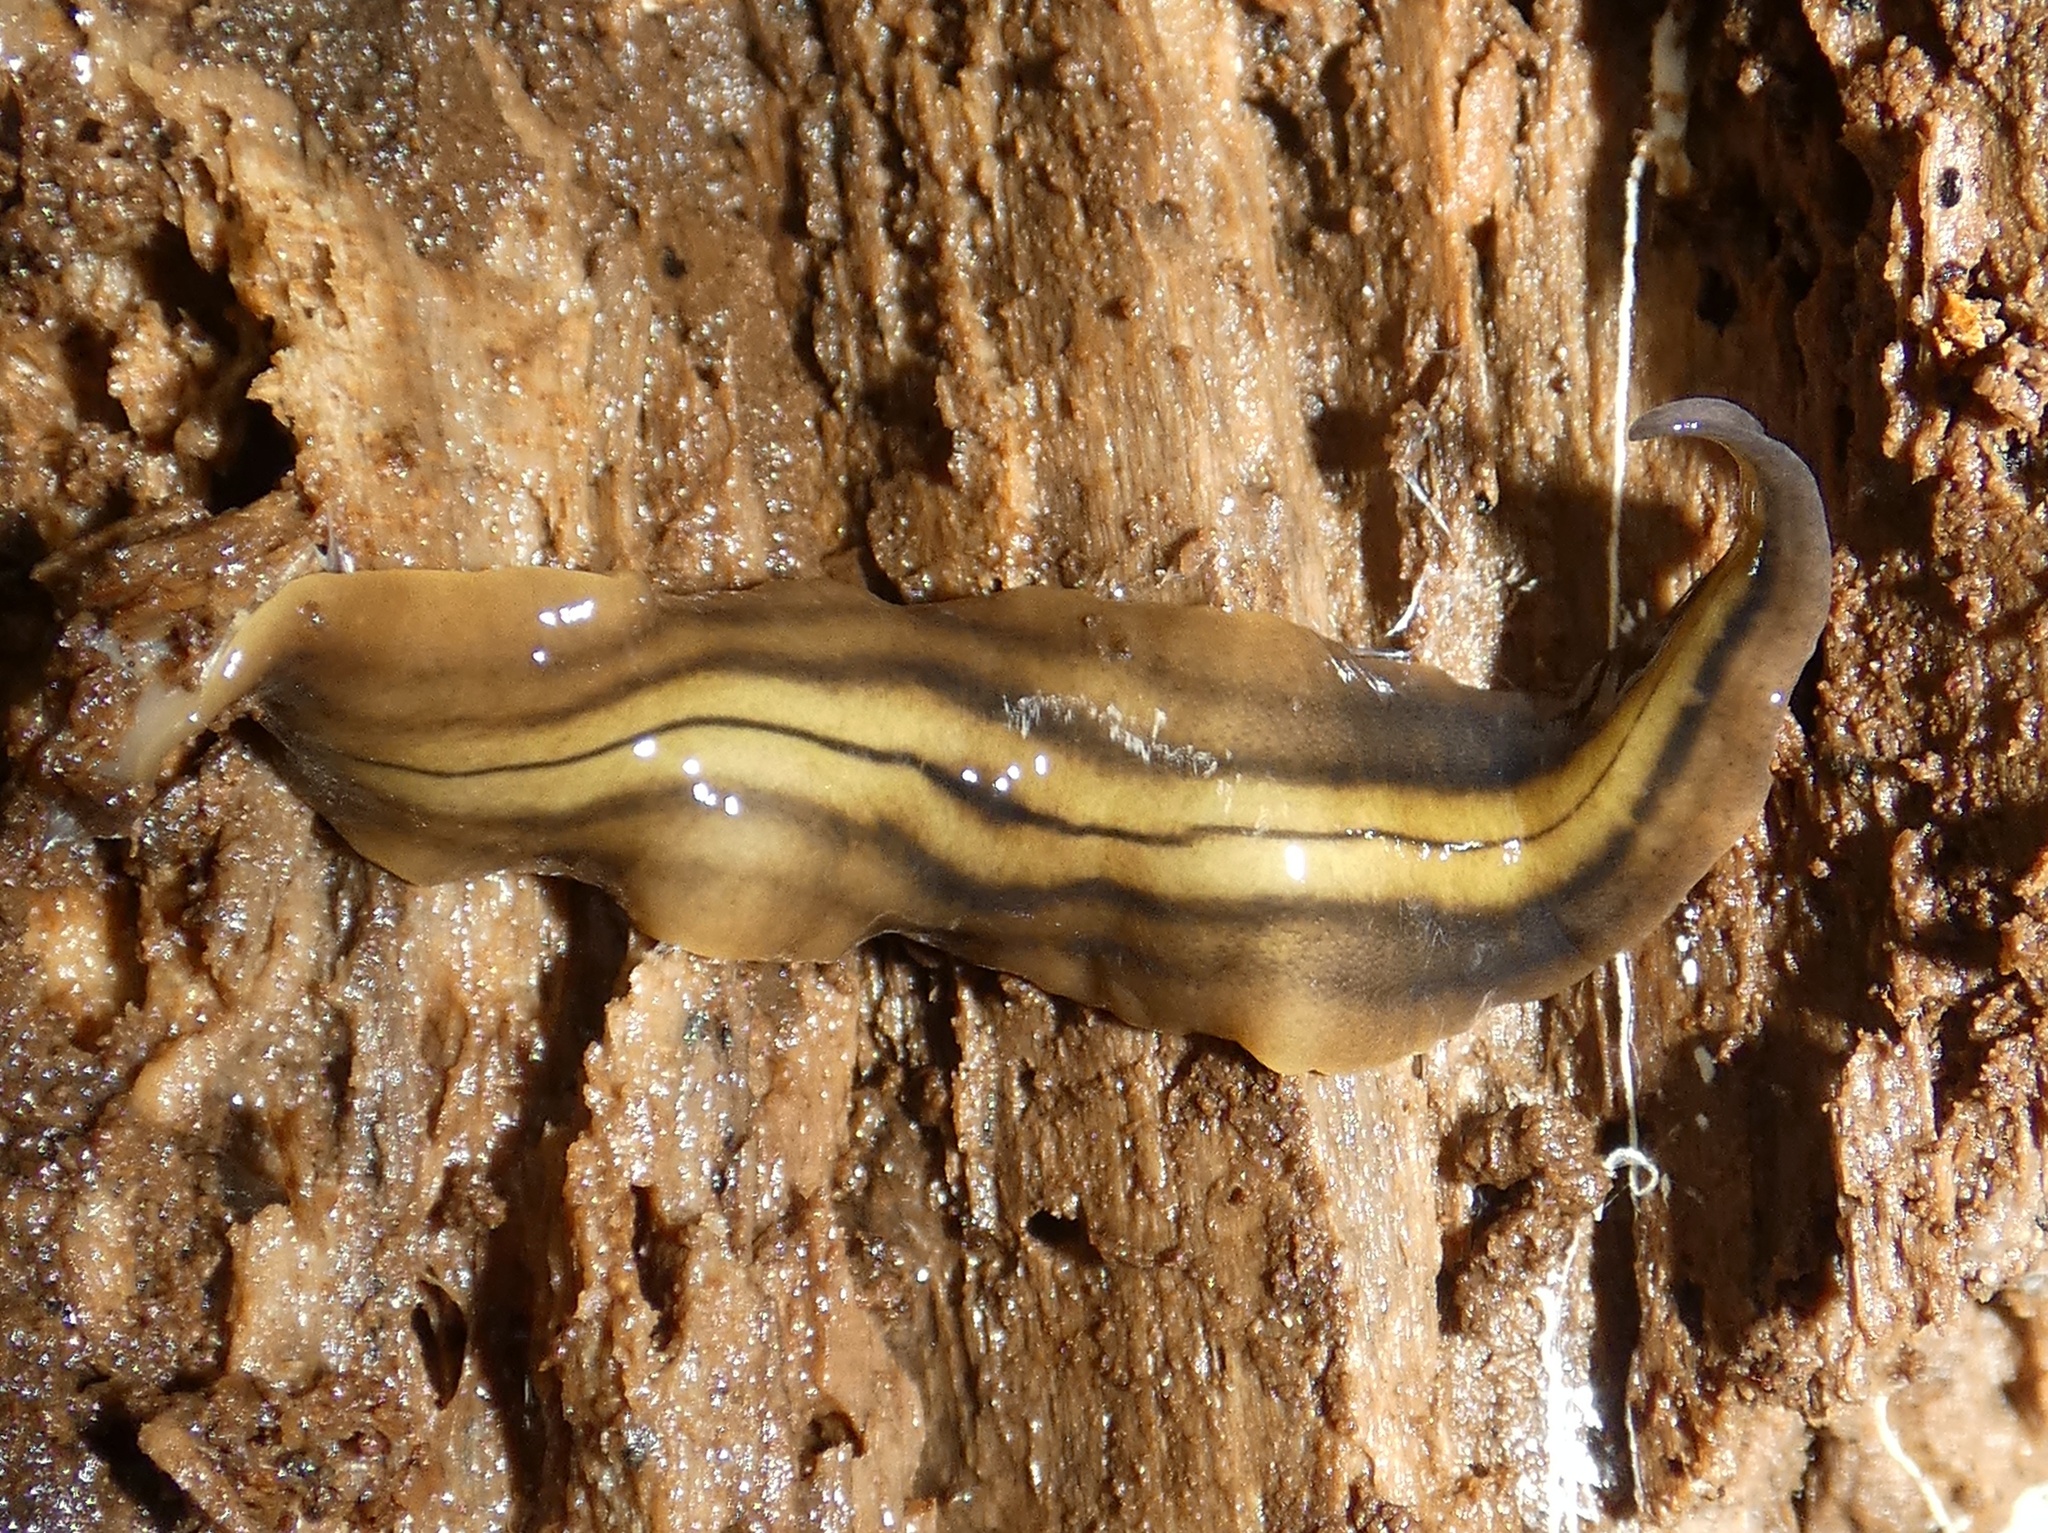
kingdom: Animalia
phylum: Platyhelminthes
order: Tricladida
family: Geoplanidae
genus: Notogynaphallia
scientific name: Notogynaphallia quinquestriata
